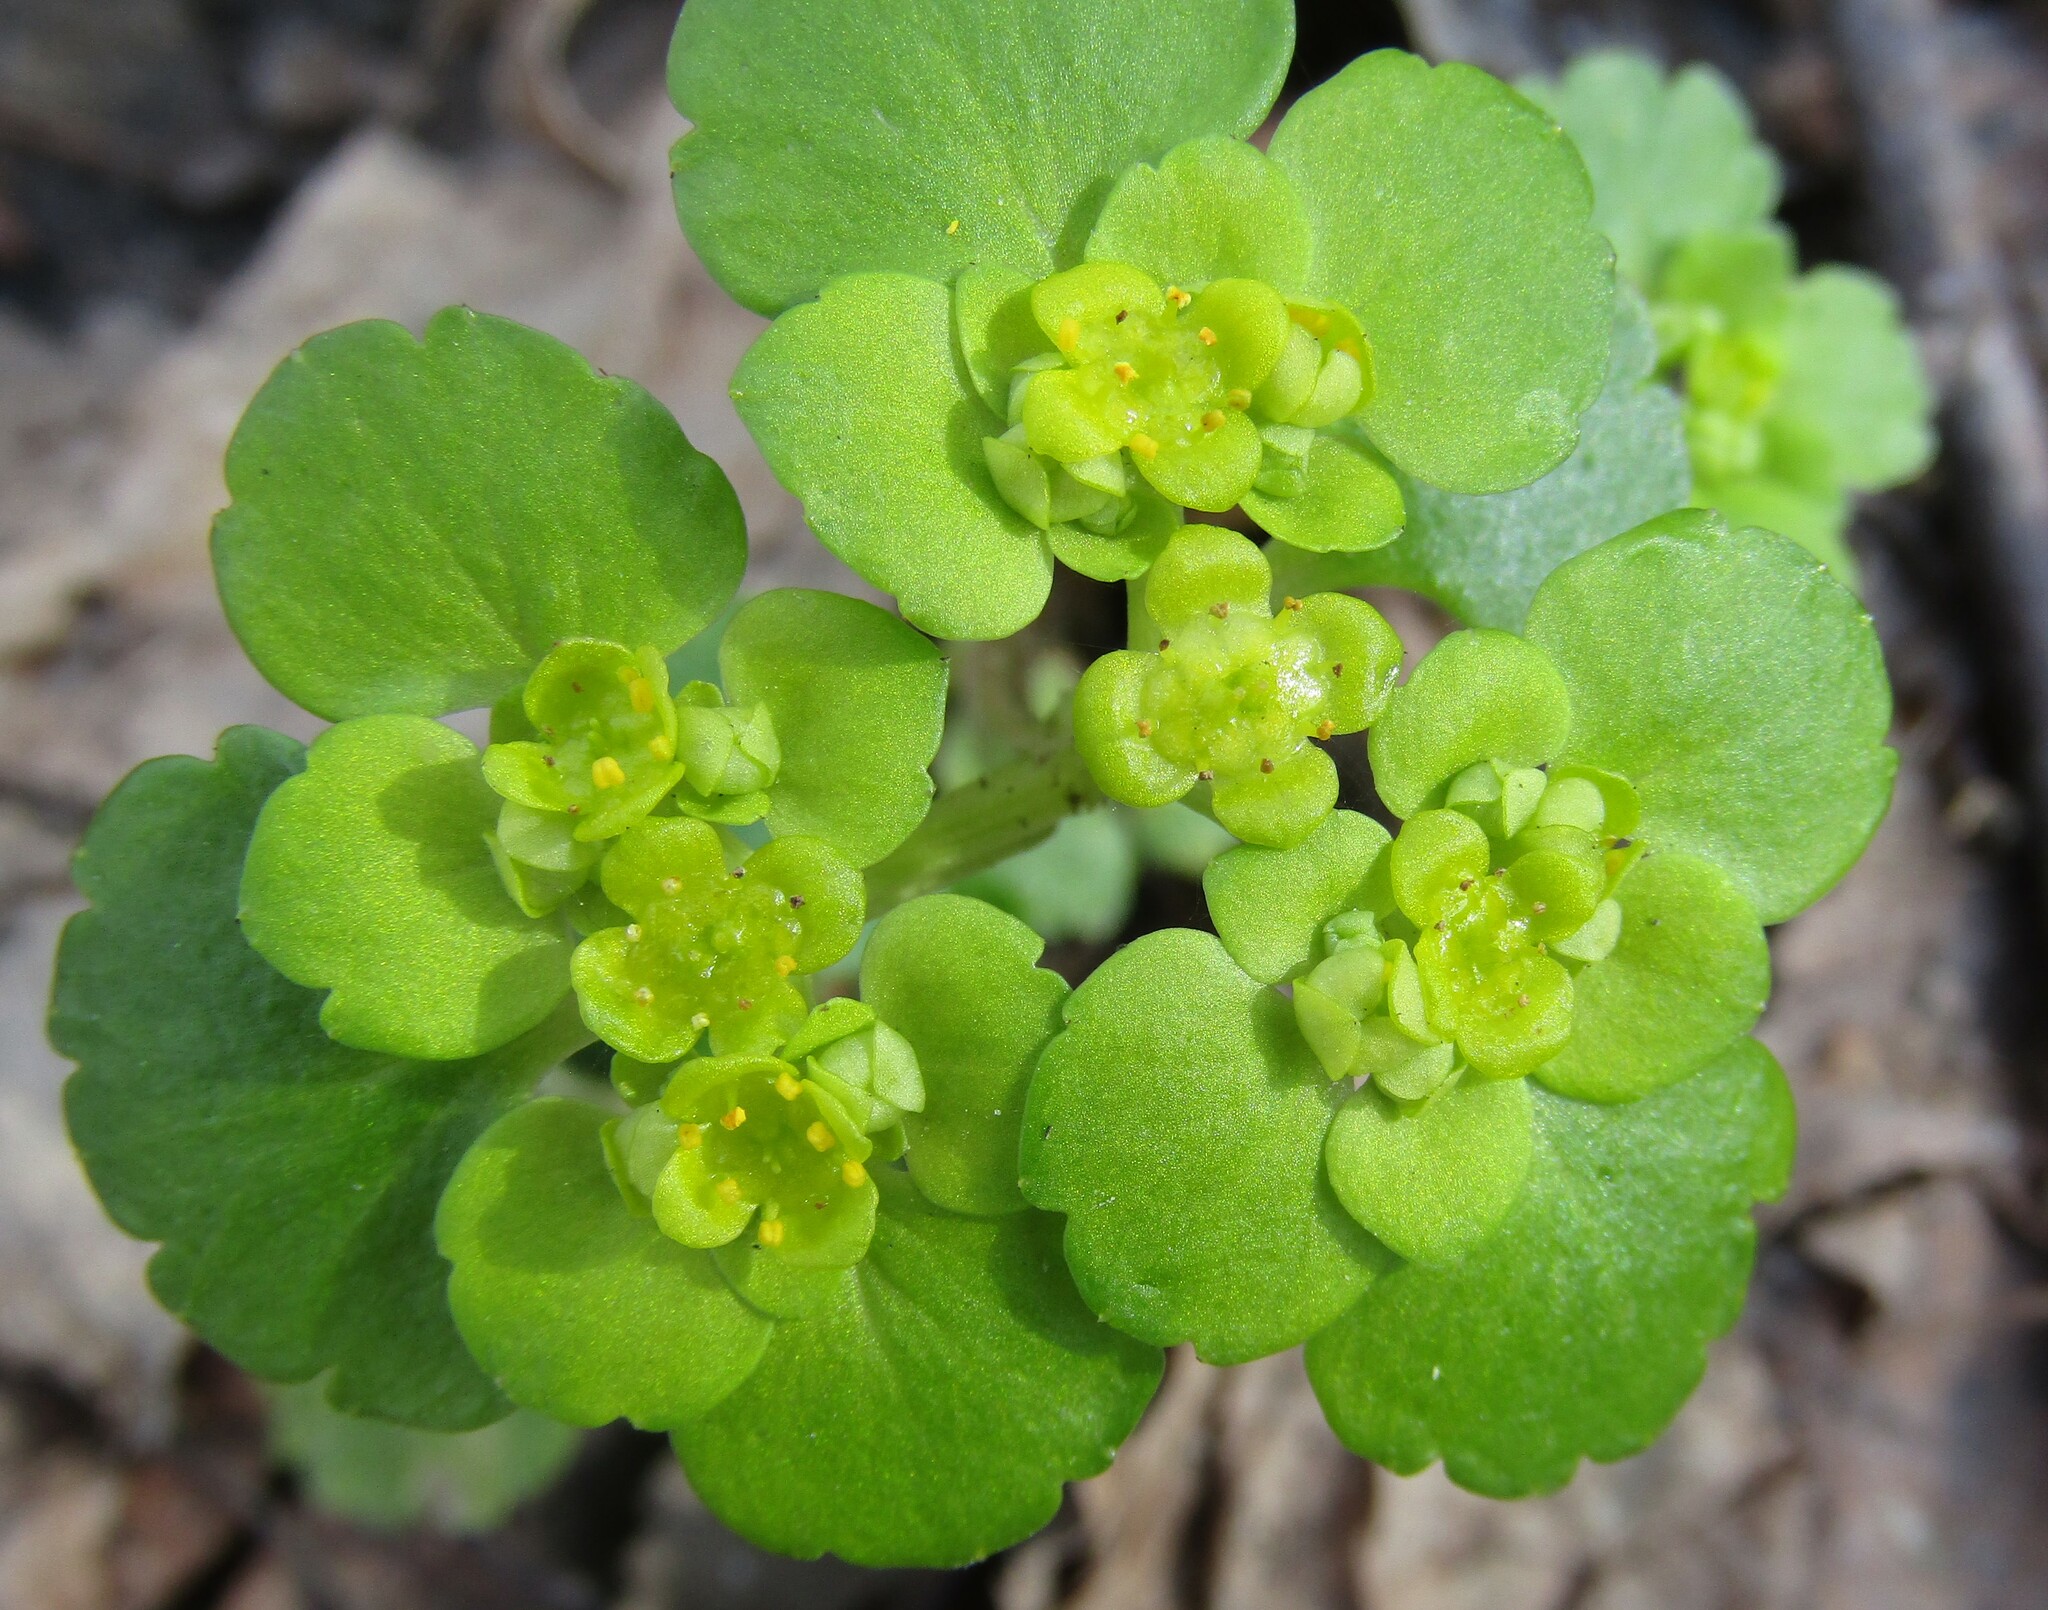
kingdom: Plantae
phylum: Tracheophyta
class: Magnoliopsida
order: Saxifragales
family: Saxifragaceae
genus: Chrysosplenium
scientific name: Chrysosplenium alternifolium
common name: Alternate-leaved golden-saxifrage
